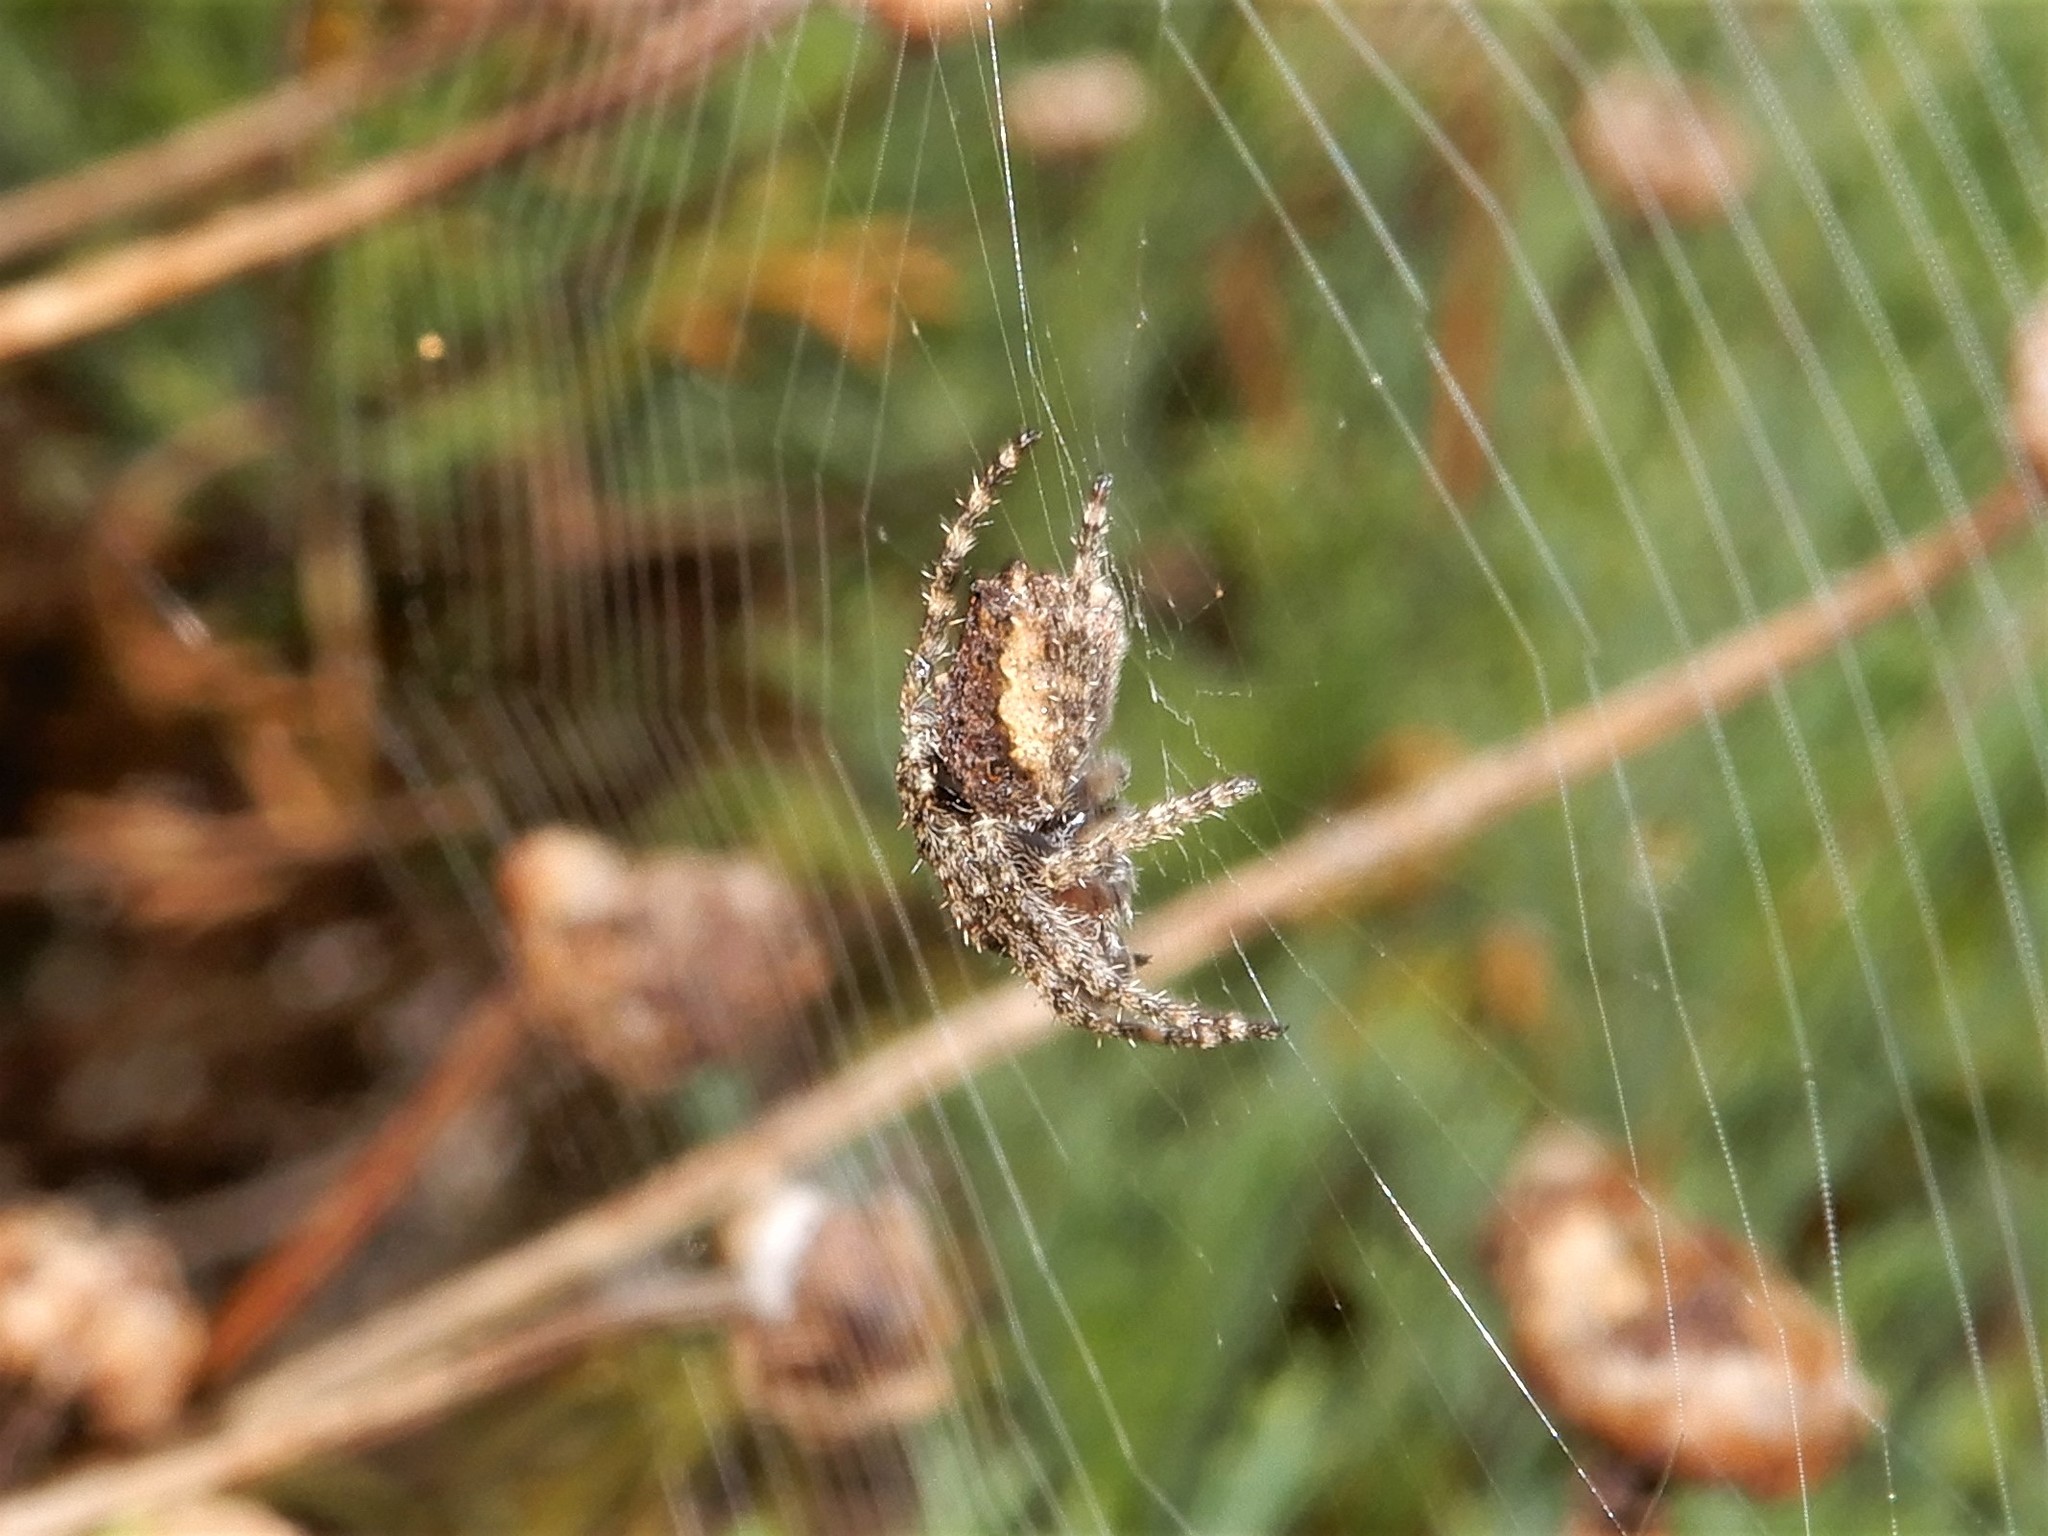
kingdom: Animalia
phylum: Arthropoda
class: Arachnida
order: Araneae
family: Araneidae
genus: Eriophora
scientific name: Eriophora pustulosa
